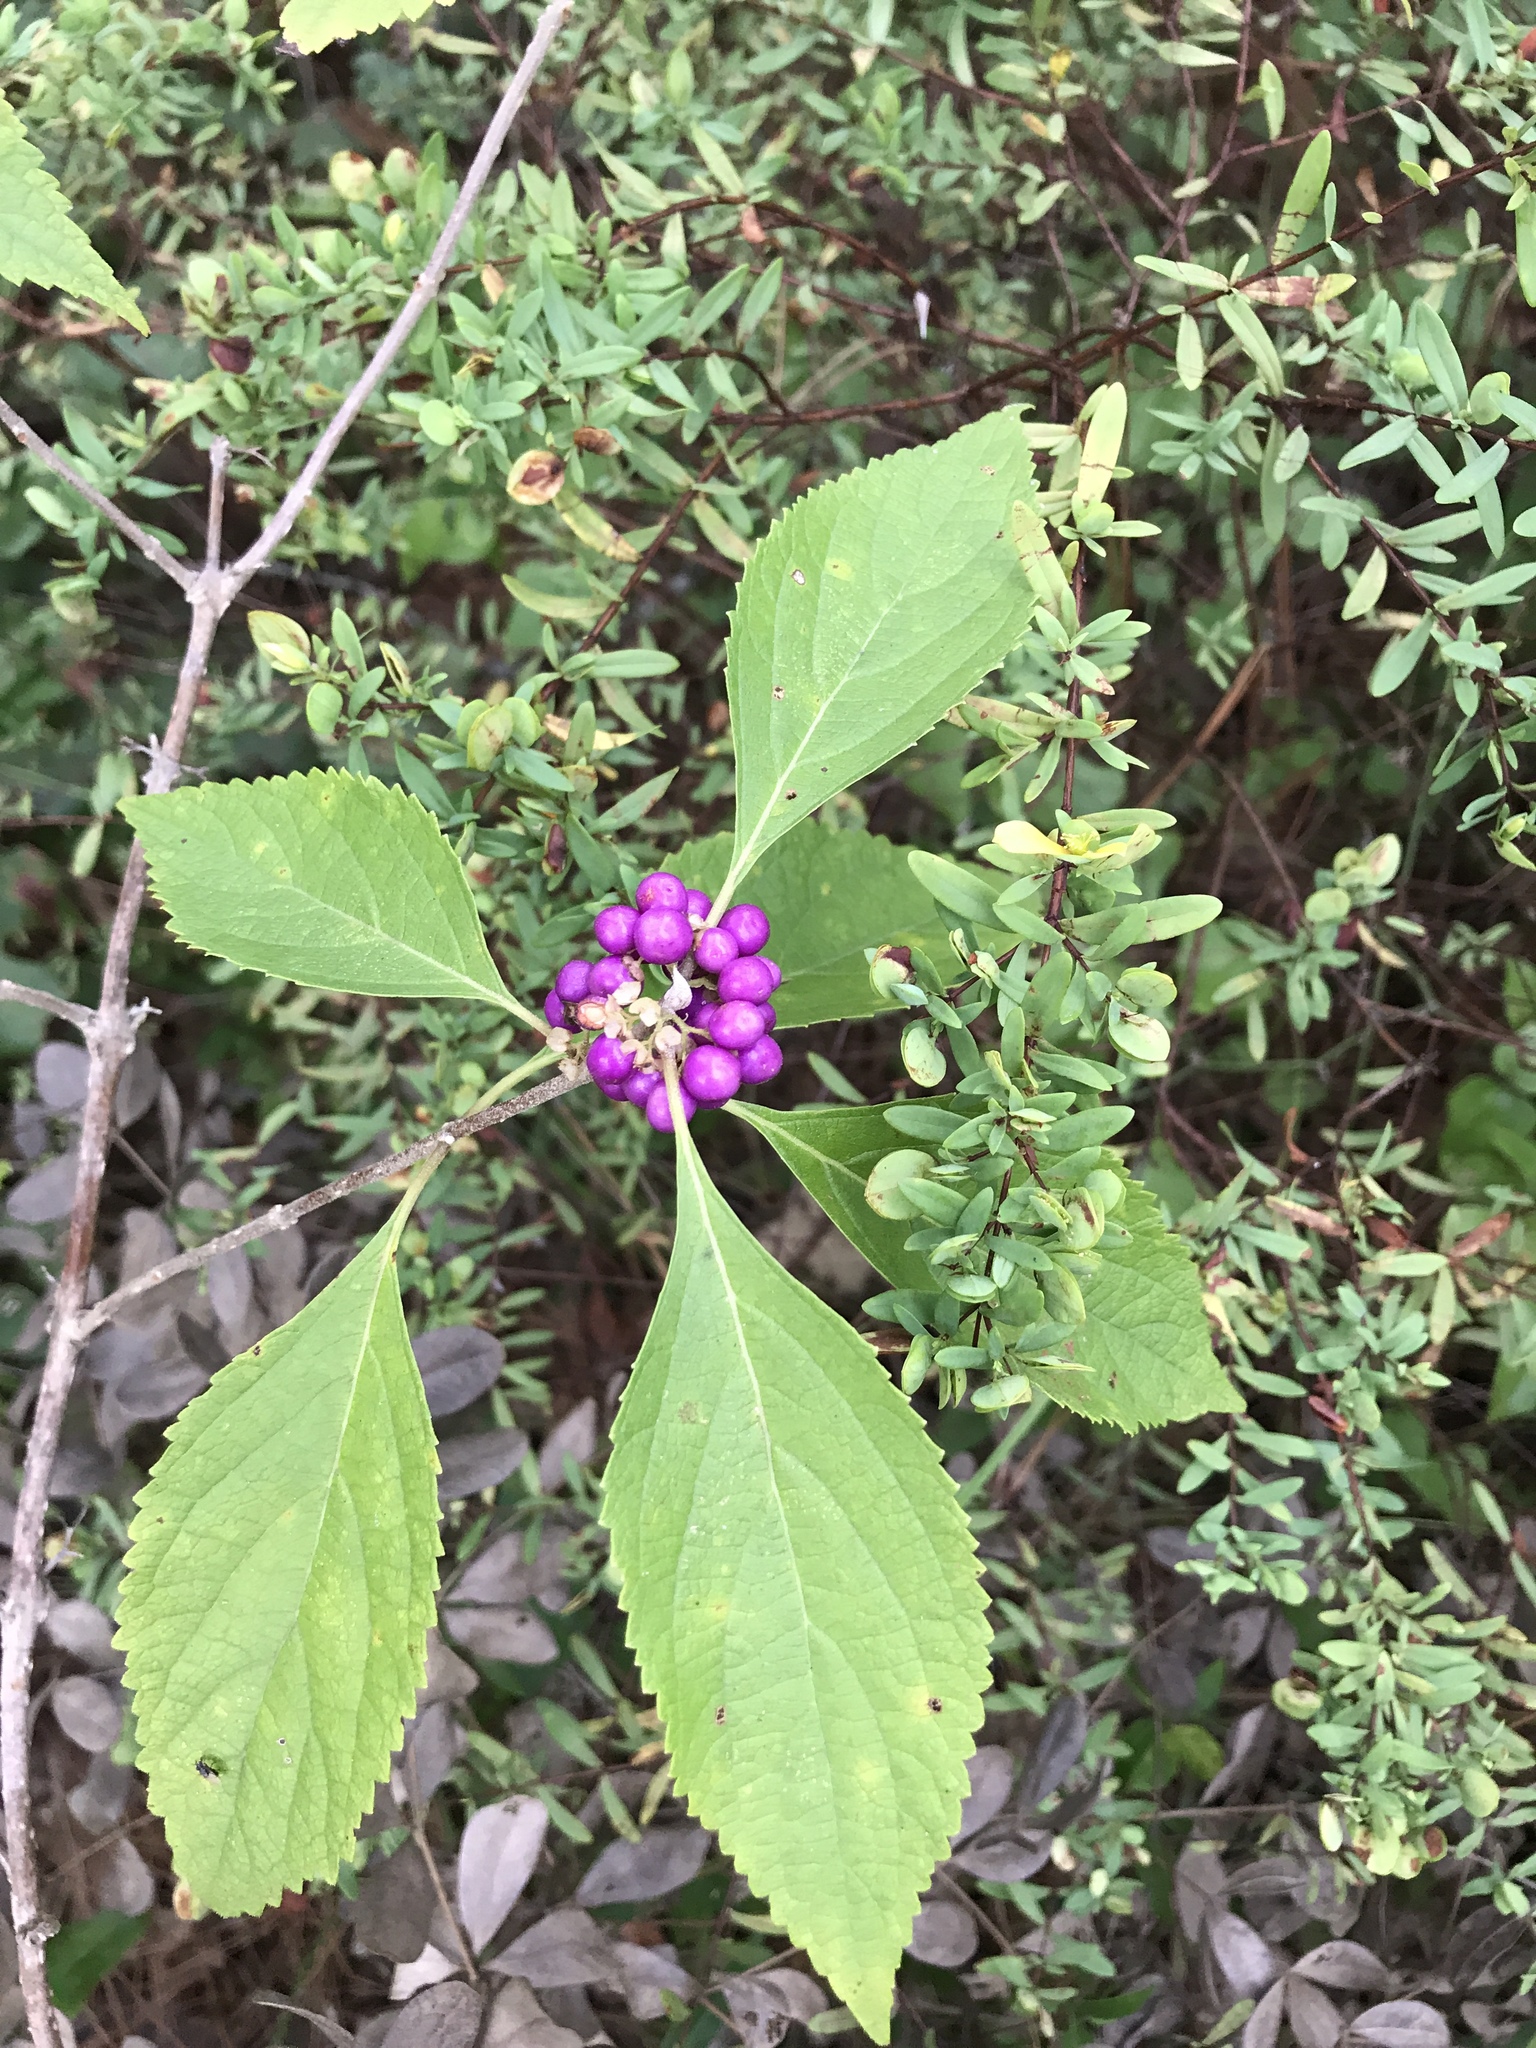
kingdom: Plantae
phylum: Tracheophyta
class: Magnoliopsida
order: Lamiales
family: Lamiaceae
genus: Callicarpa
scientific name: Callicarpa americana
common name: American beautyberry
